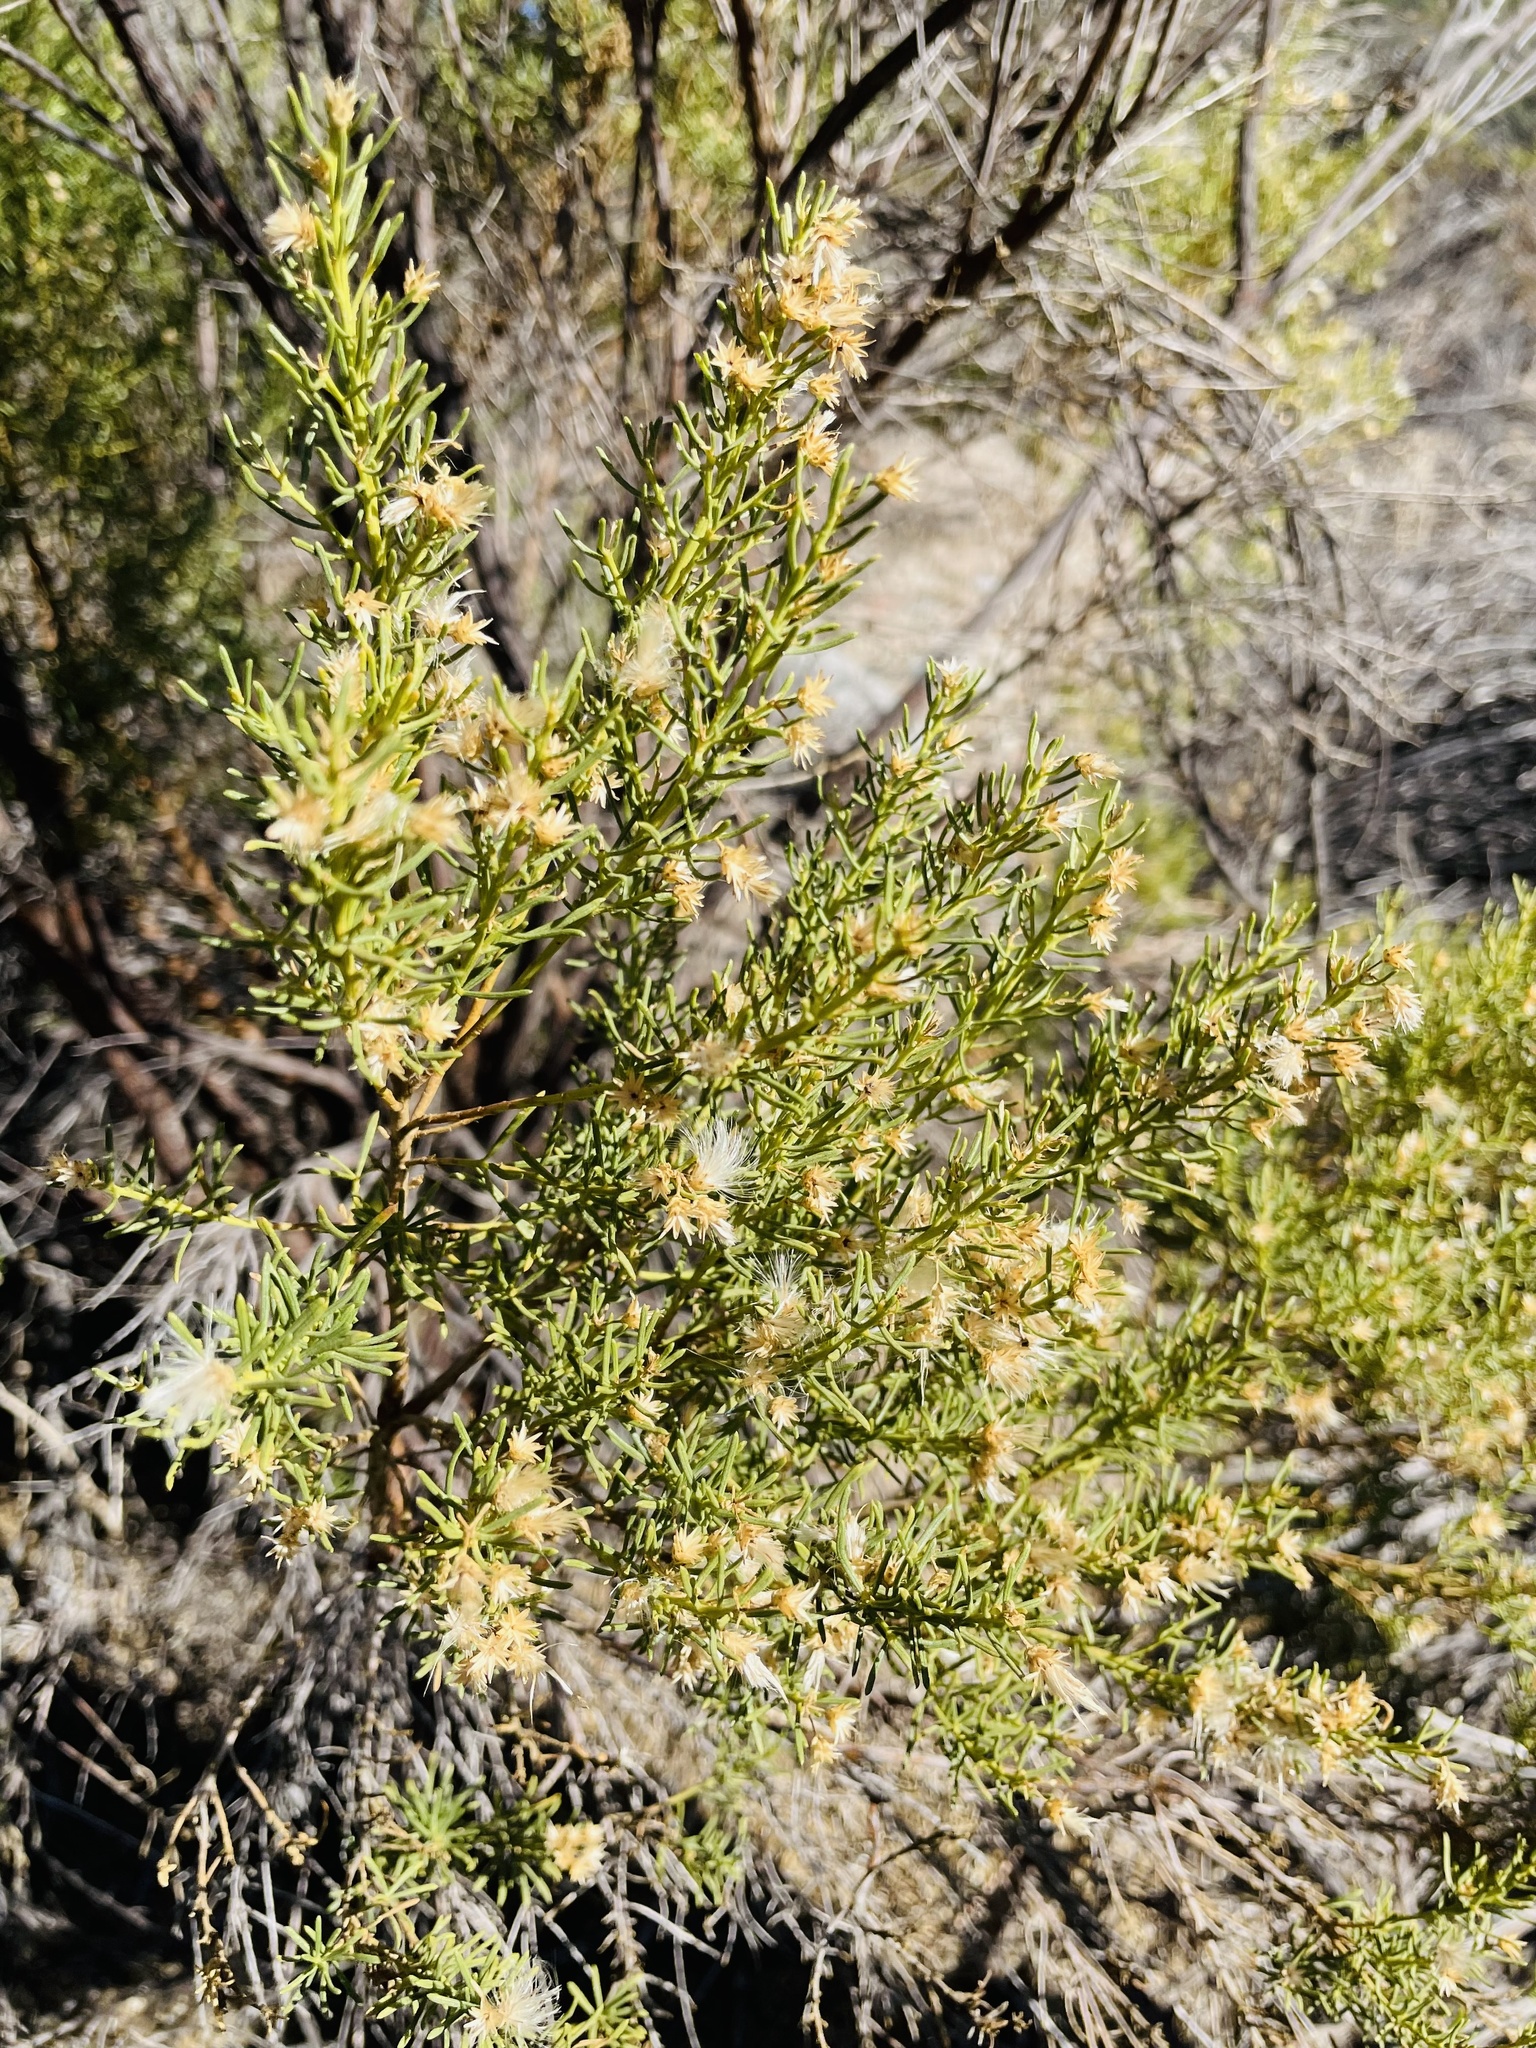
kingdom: Plantae
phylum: Tracheophyta
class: Magnoliopsida
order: Asterales
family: Asteraceae
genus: Baccharis
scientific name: Baccharis linearis
